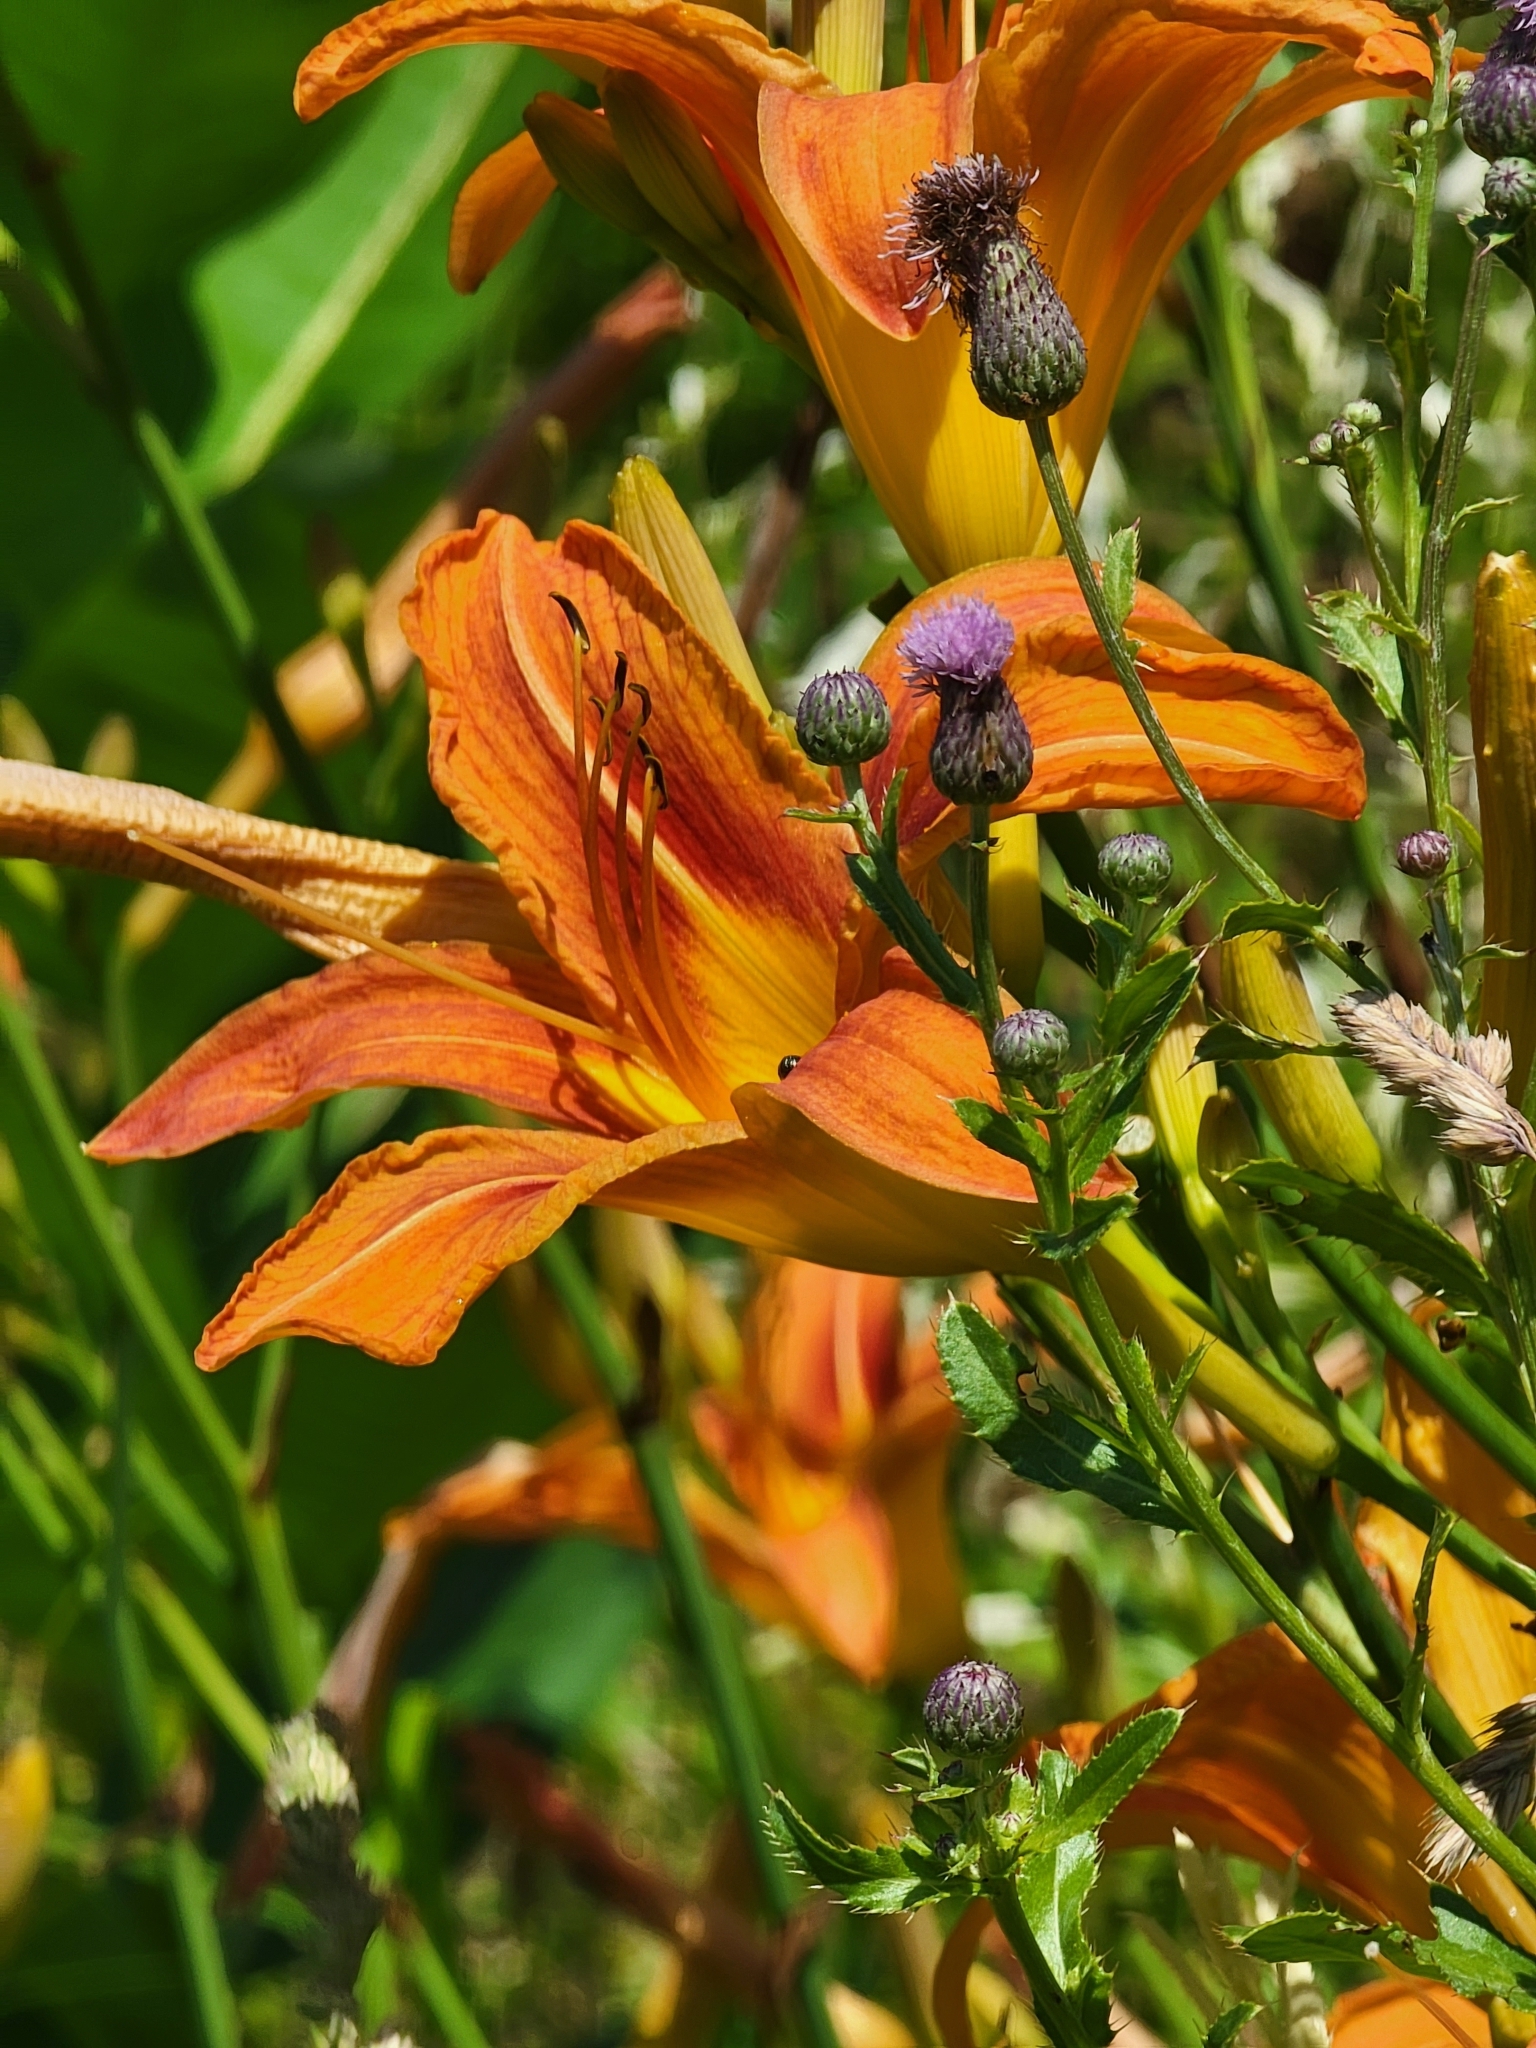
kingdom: Plantae
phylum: Tracheophyta
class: Liliopsida
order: Asparagales
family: Asphodelaceae
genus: Hemerocallis
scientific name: Hemerocallis fulva
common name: Orange day-lily
